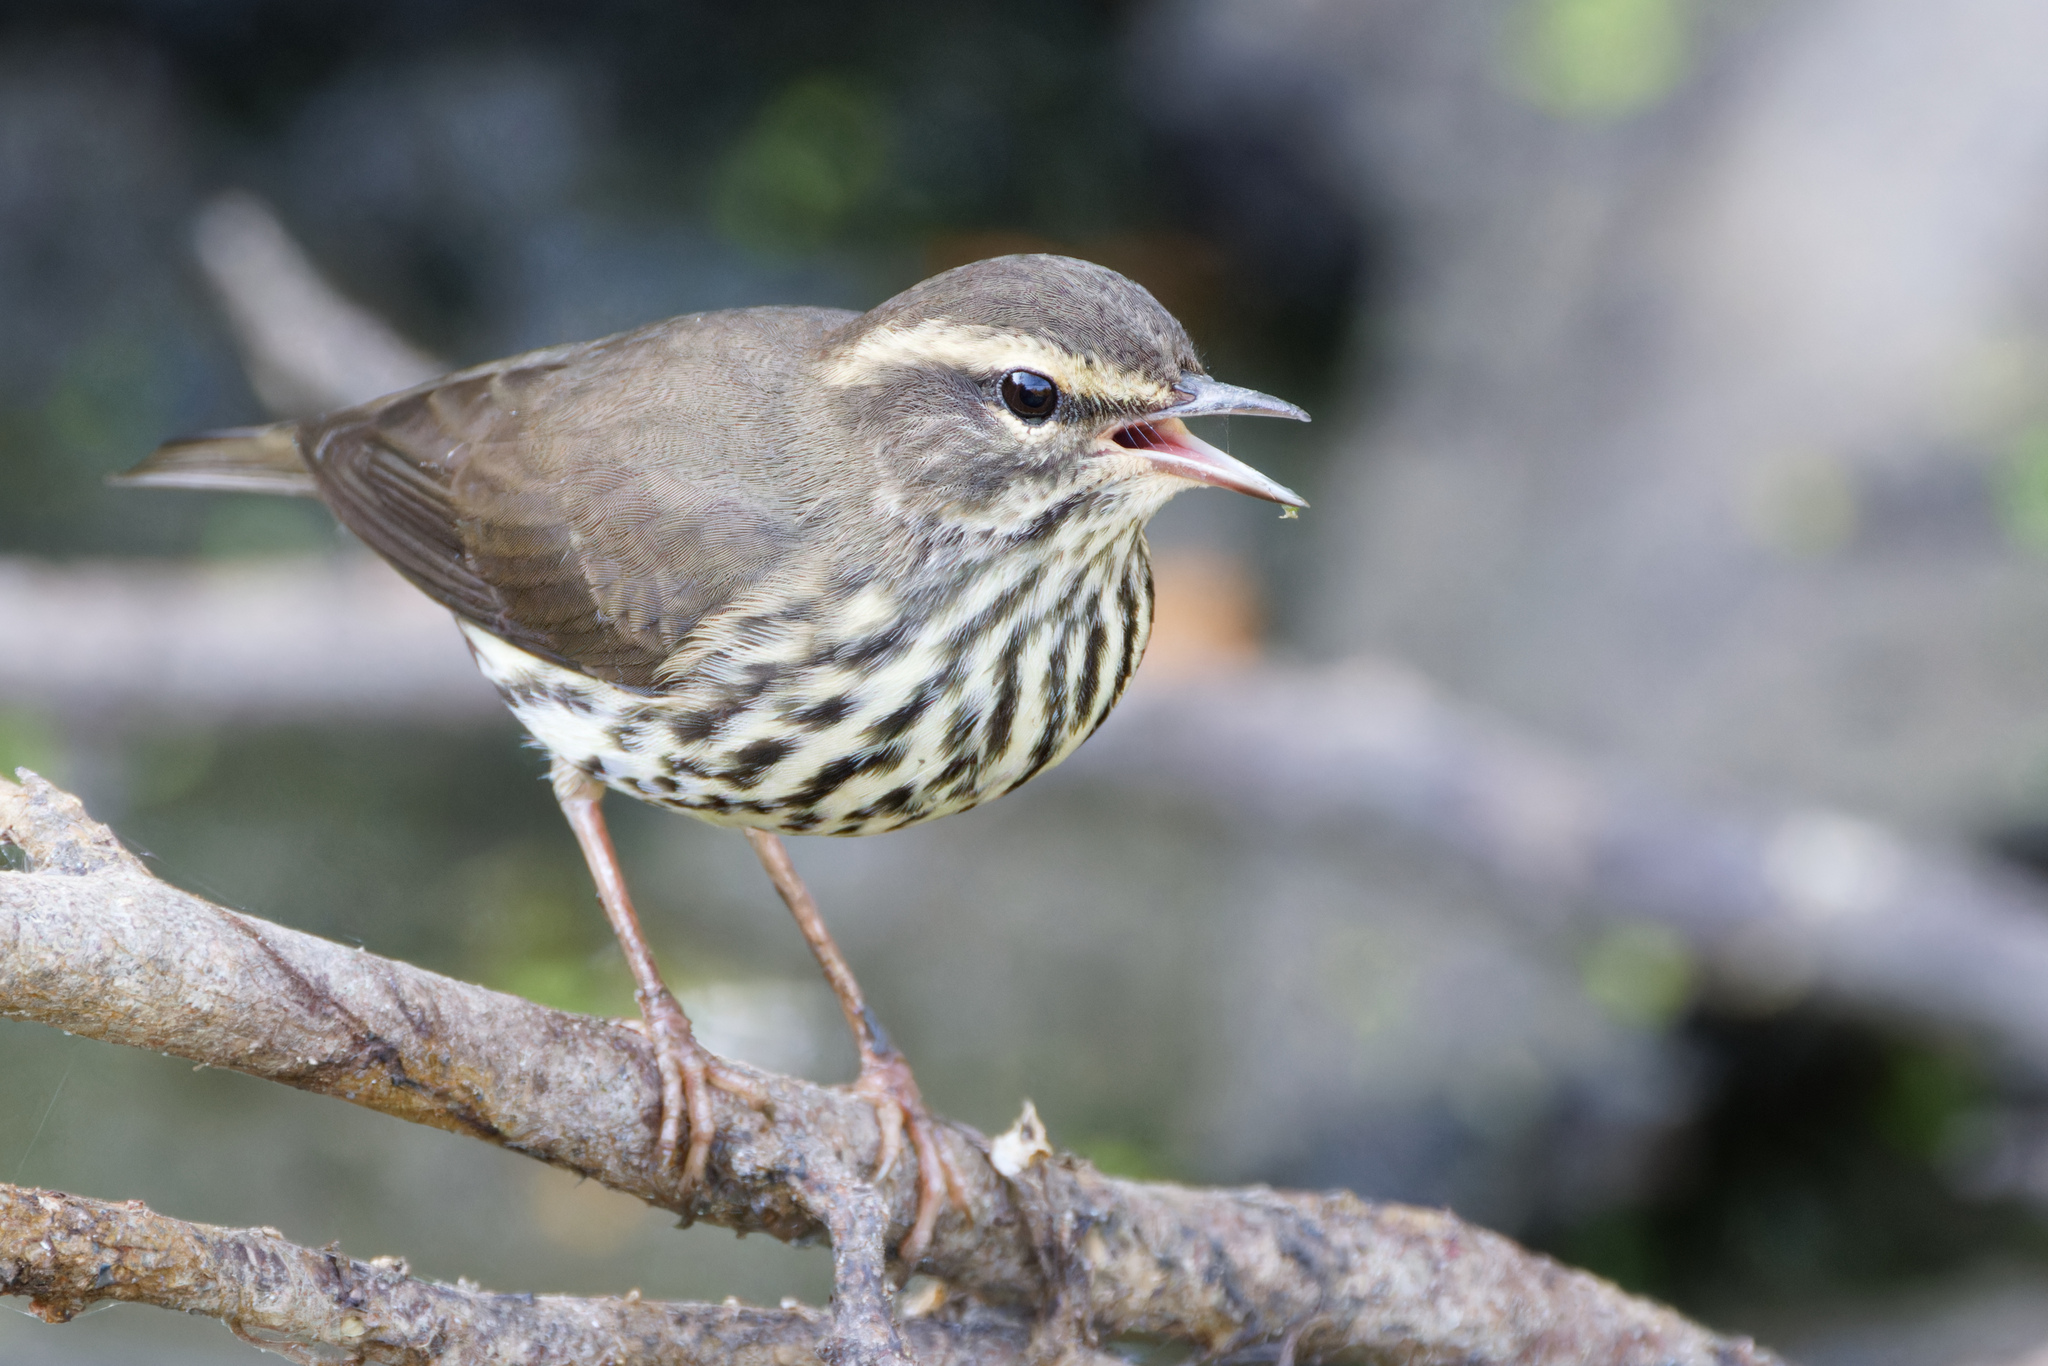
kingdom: Animalia
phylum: Chordata
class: Aves
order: Passeriformes
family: Parulidae
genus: Parkesia
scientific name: Parkesia noveboracensis
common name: Northern waterthrush
